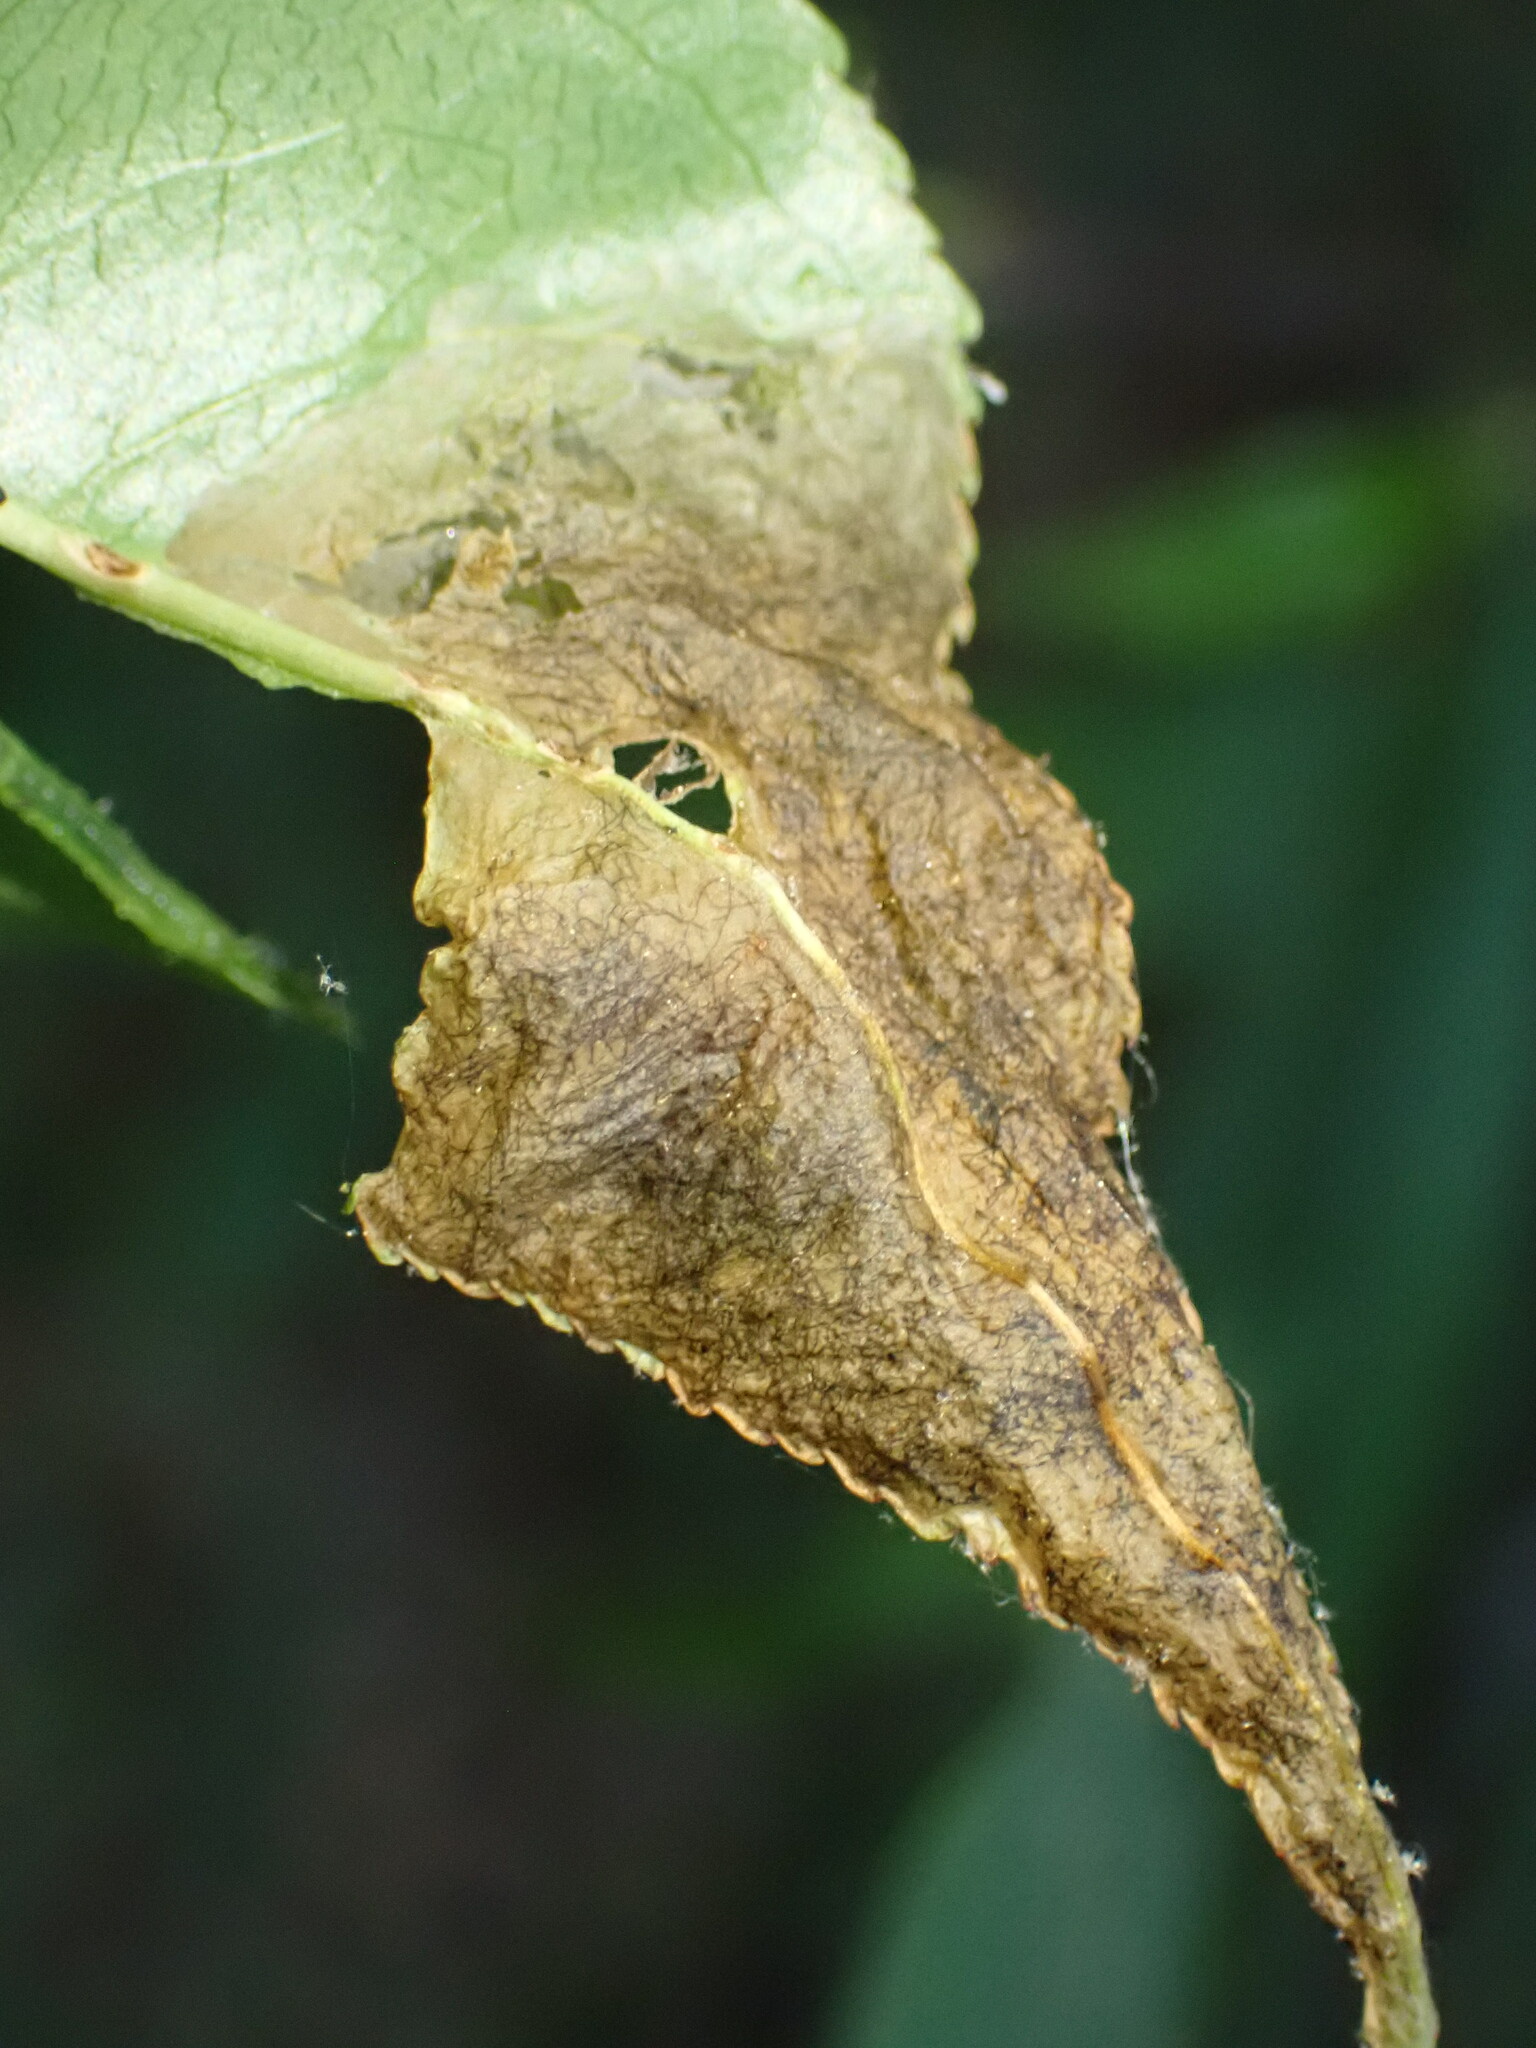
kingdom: Animalia
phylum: Arthropoda
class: Insecta
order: Coleoptera
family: Curculionidae
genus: Orchestes
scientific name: Orchestes pallicornis
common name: Apple-flea weevil
